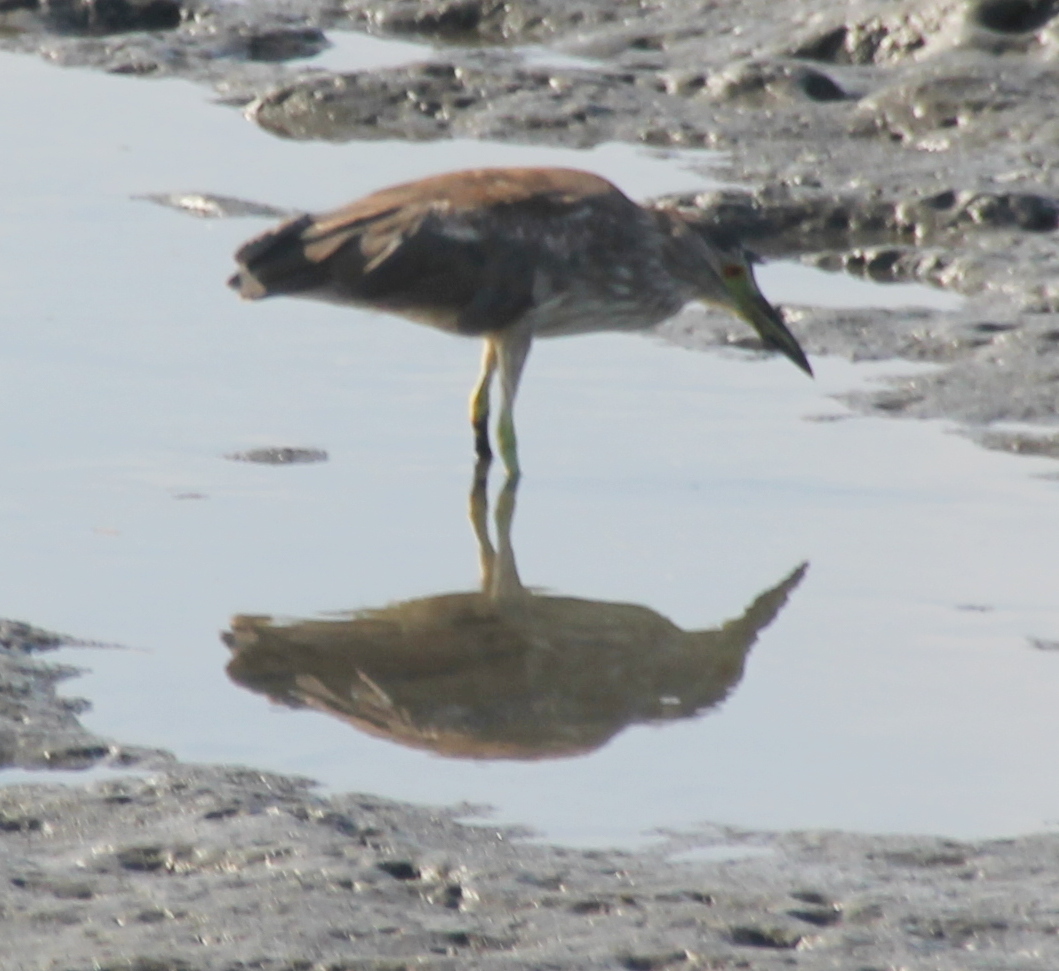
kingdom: Animalia
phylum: Chordata
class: Aves
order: Pelecaniformes
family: Ardeidae
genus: Nycticorax
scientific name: Nycticorax nycticorax
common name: Black-crowned night heron
